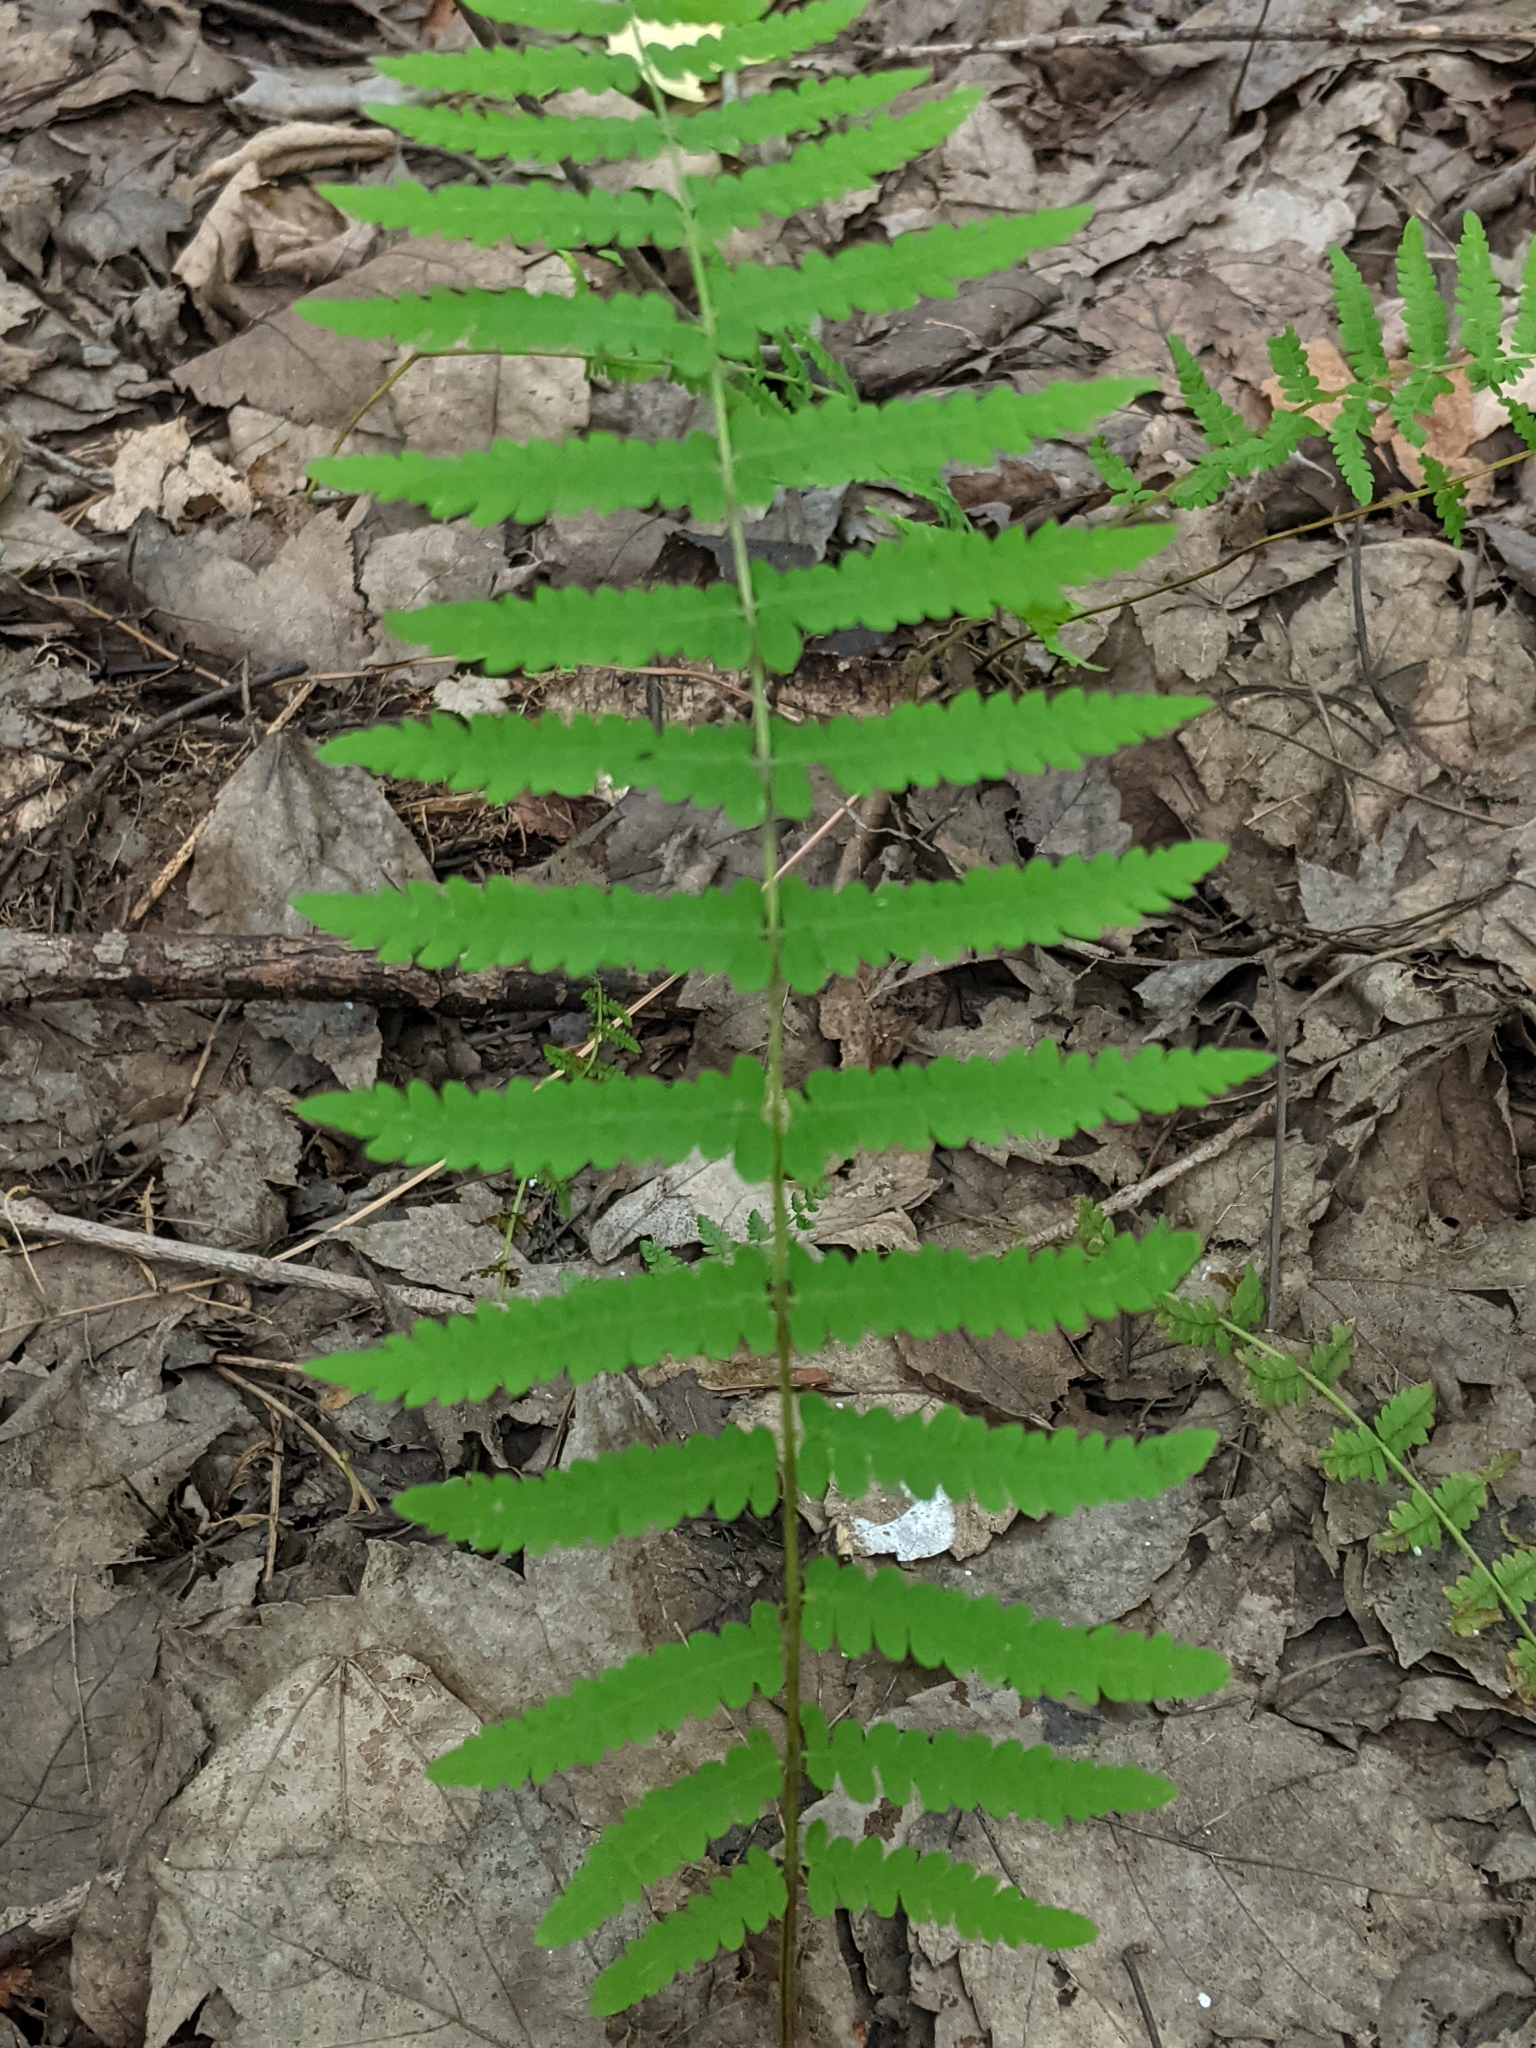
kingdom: Plantae
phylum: Tracheophyta
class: Polypodiopsida
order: Polypodiales
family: Thelypteridaceae
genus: Thelypteris
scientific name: Thelypteris palustris
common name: Marsh fern
